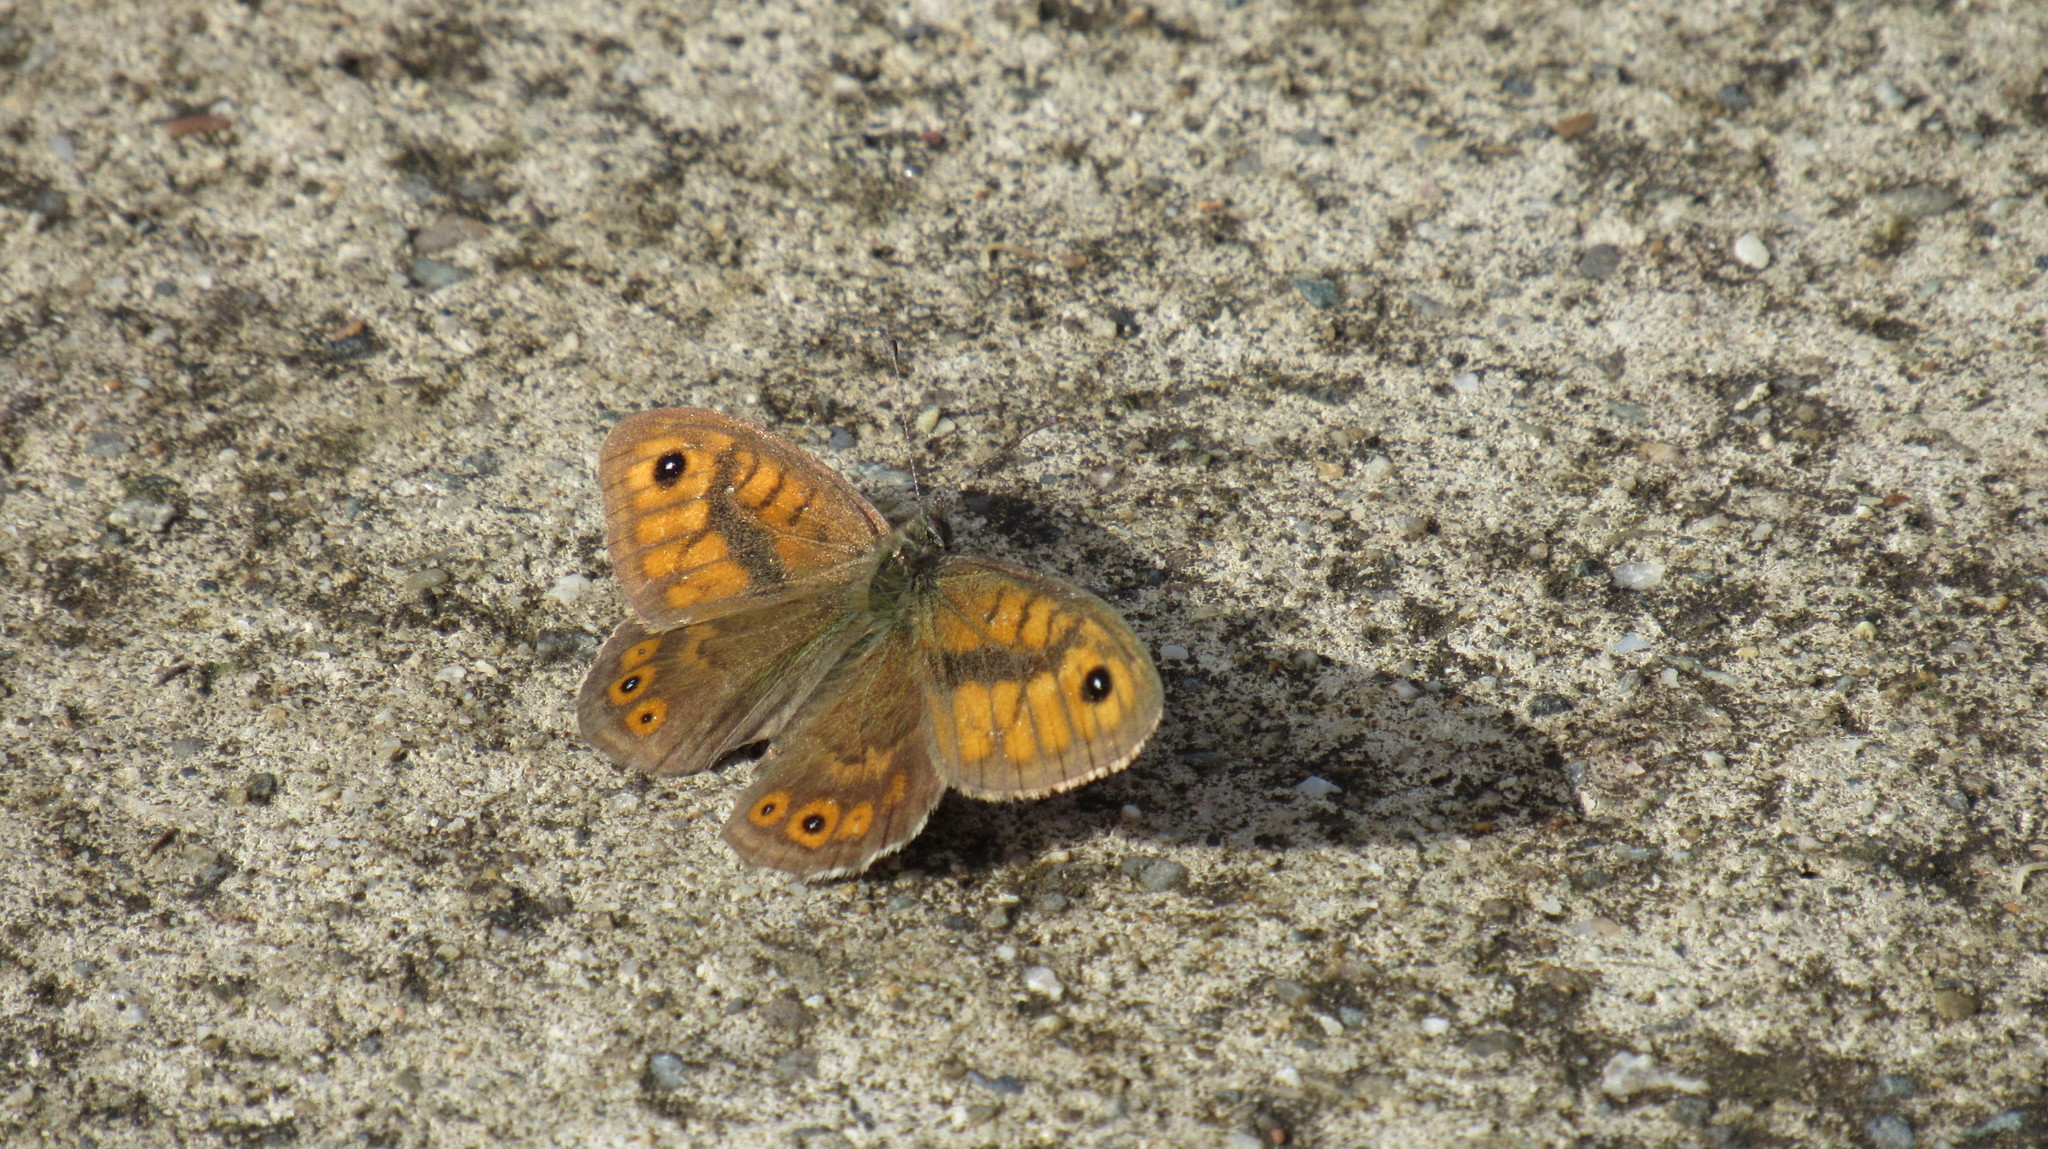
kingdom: Animalia
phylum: Arthropoda
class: Insecta
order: Lepidoptera
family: Nymphalidae
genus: Pararge
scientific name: Pararge Lasiommata megera
